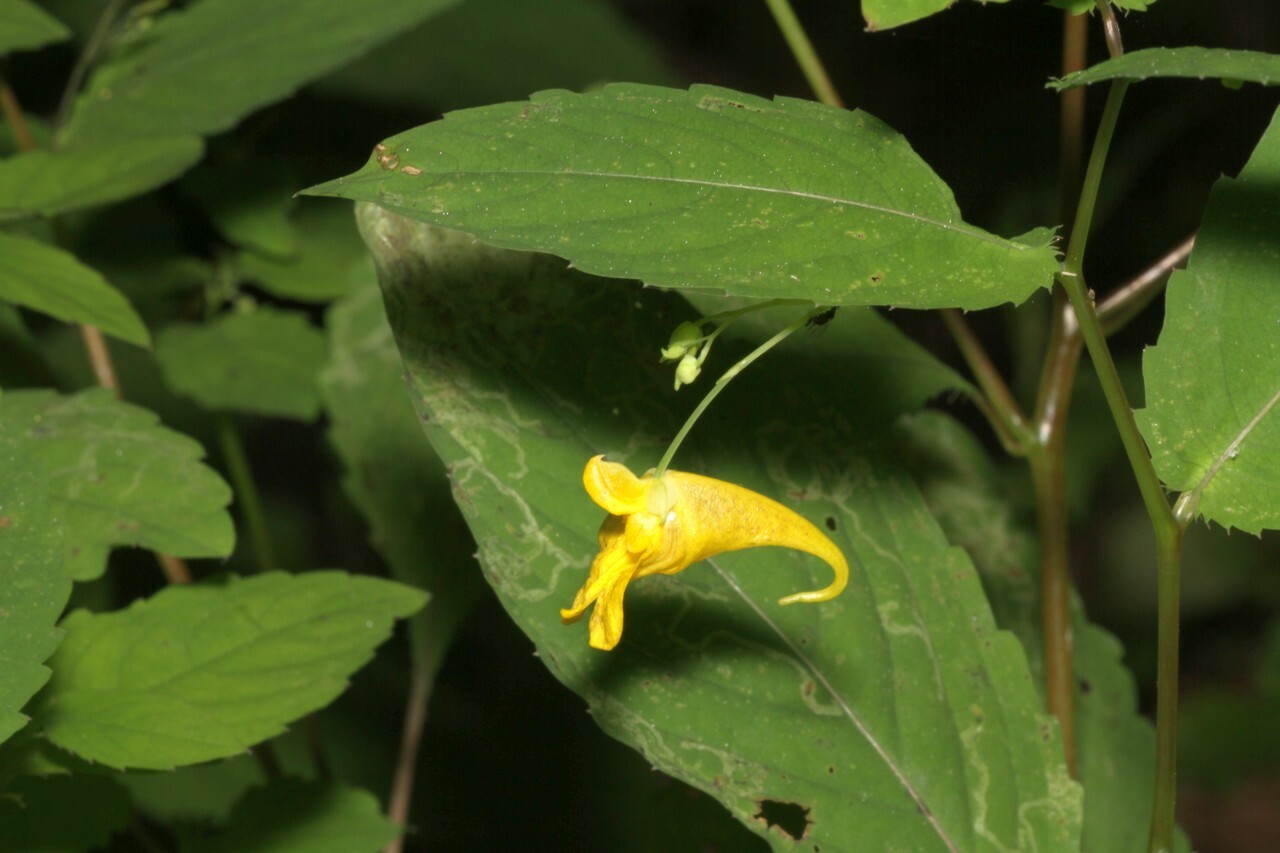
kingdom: Plantae
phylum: Tracheophyta
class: Magnoliopsida
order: Ericales
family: Balsaminaceae
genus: Impatiens
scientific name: Impatiens noli-tangere
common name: Touch-me-not balsam
